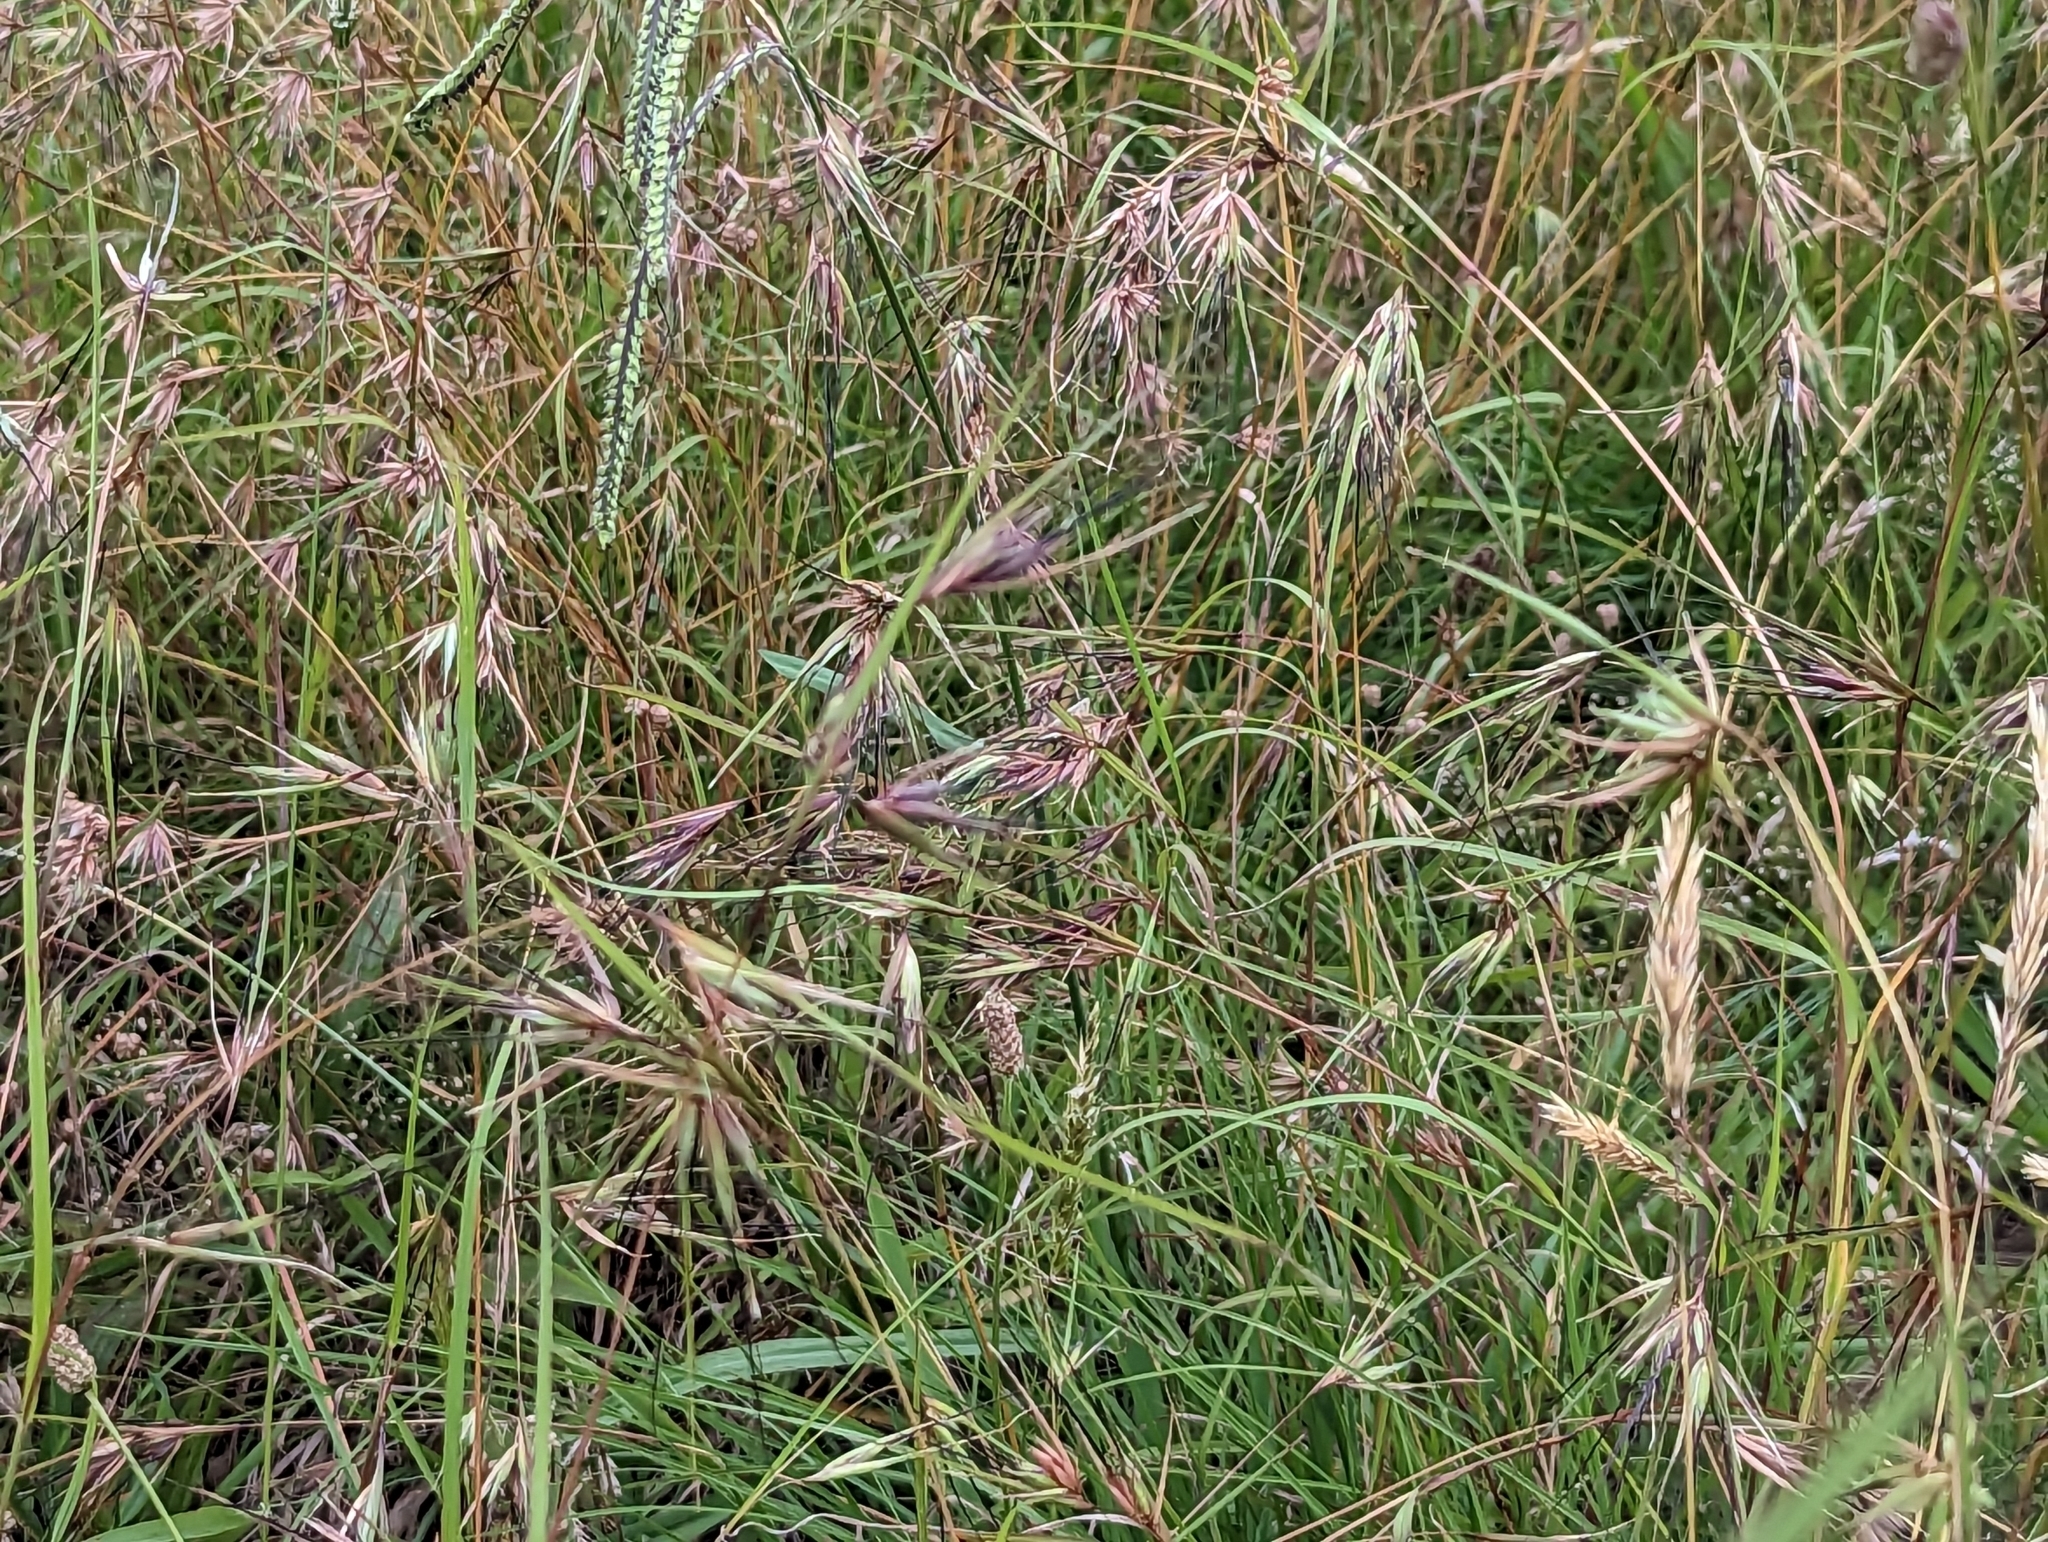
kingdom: Plantae
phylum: Tracheophyta
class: Liliopsida
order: Poales
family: Poaceae
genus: Themeda
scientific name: Themeda triandra
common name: Kangaroo grass
